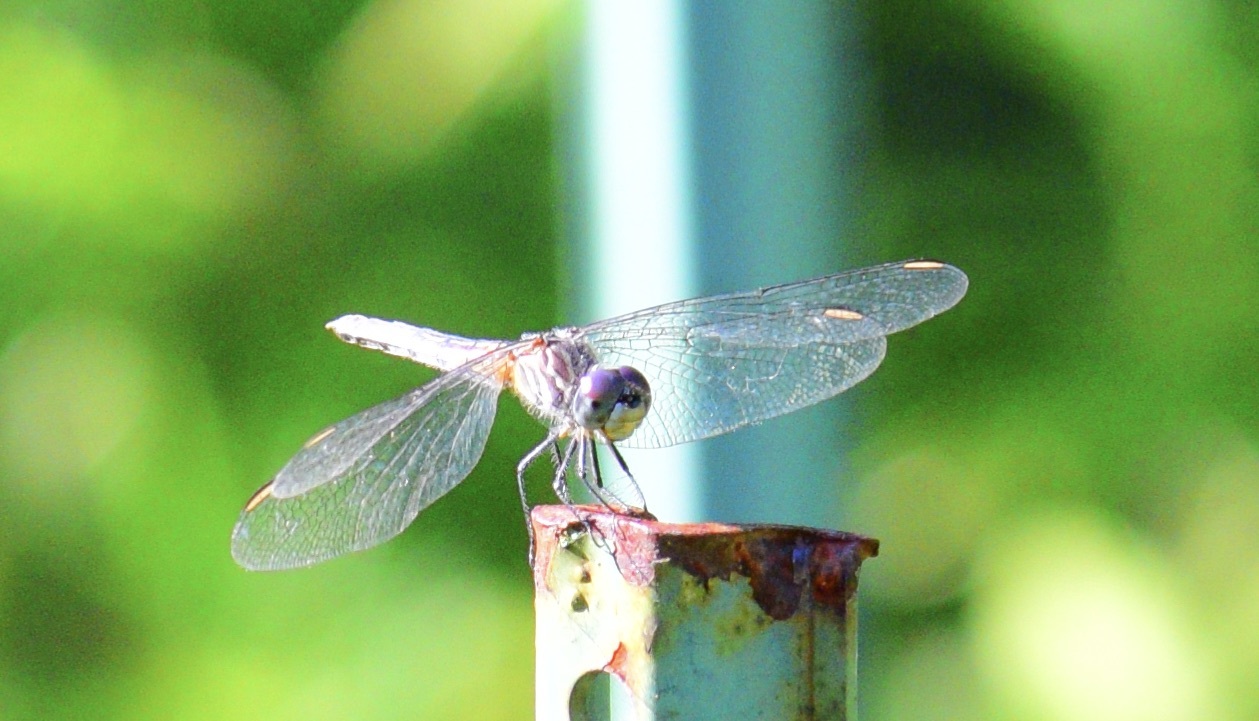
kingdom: Animalia
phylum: Arthropoda
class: Insecta
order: Odonata
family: Libellulidae
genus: Pachydiplax
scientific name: Pachydiplax longipennis
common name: Blue dasher
